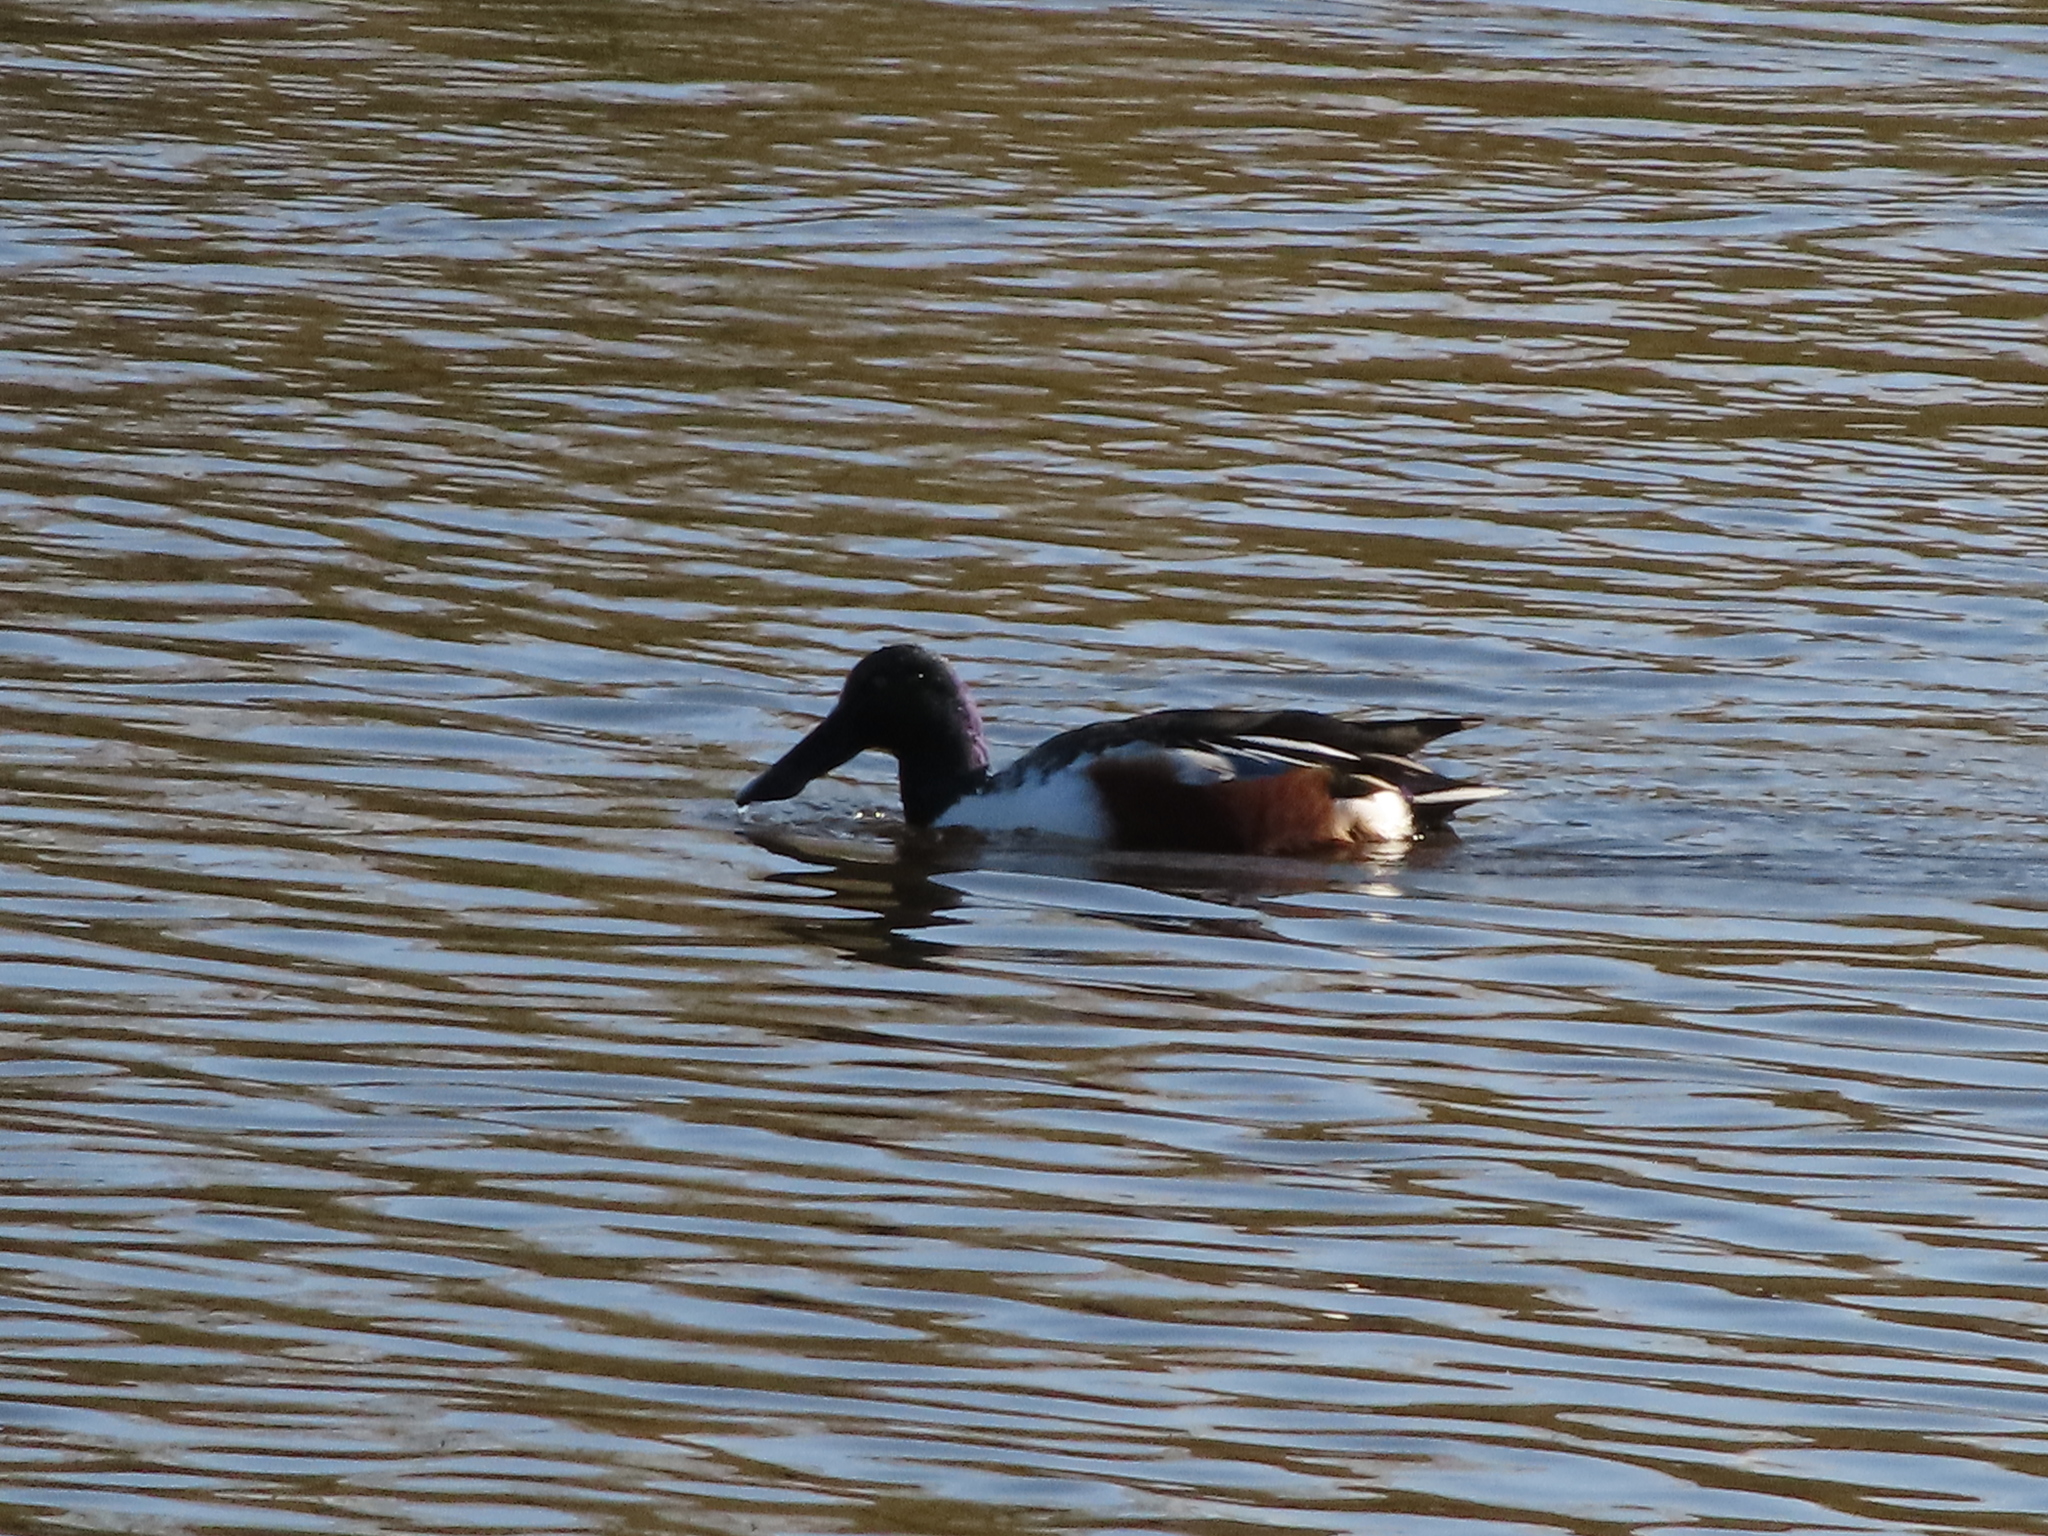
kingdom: Animalia
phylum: Chordata
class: Aves
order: Anseriformes
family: Anatidae
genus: Spatula
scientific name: Spatula clypeata
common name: Northern shoveler
